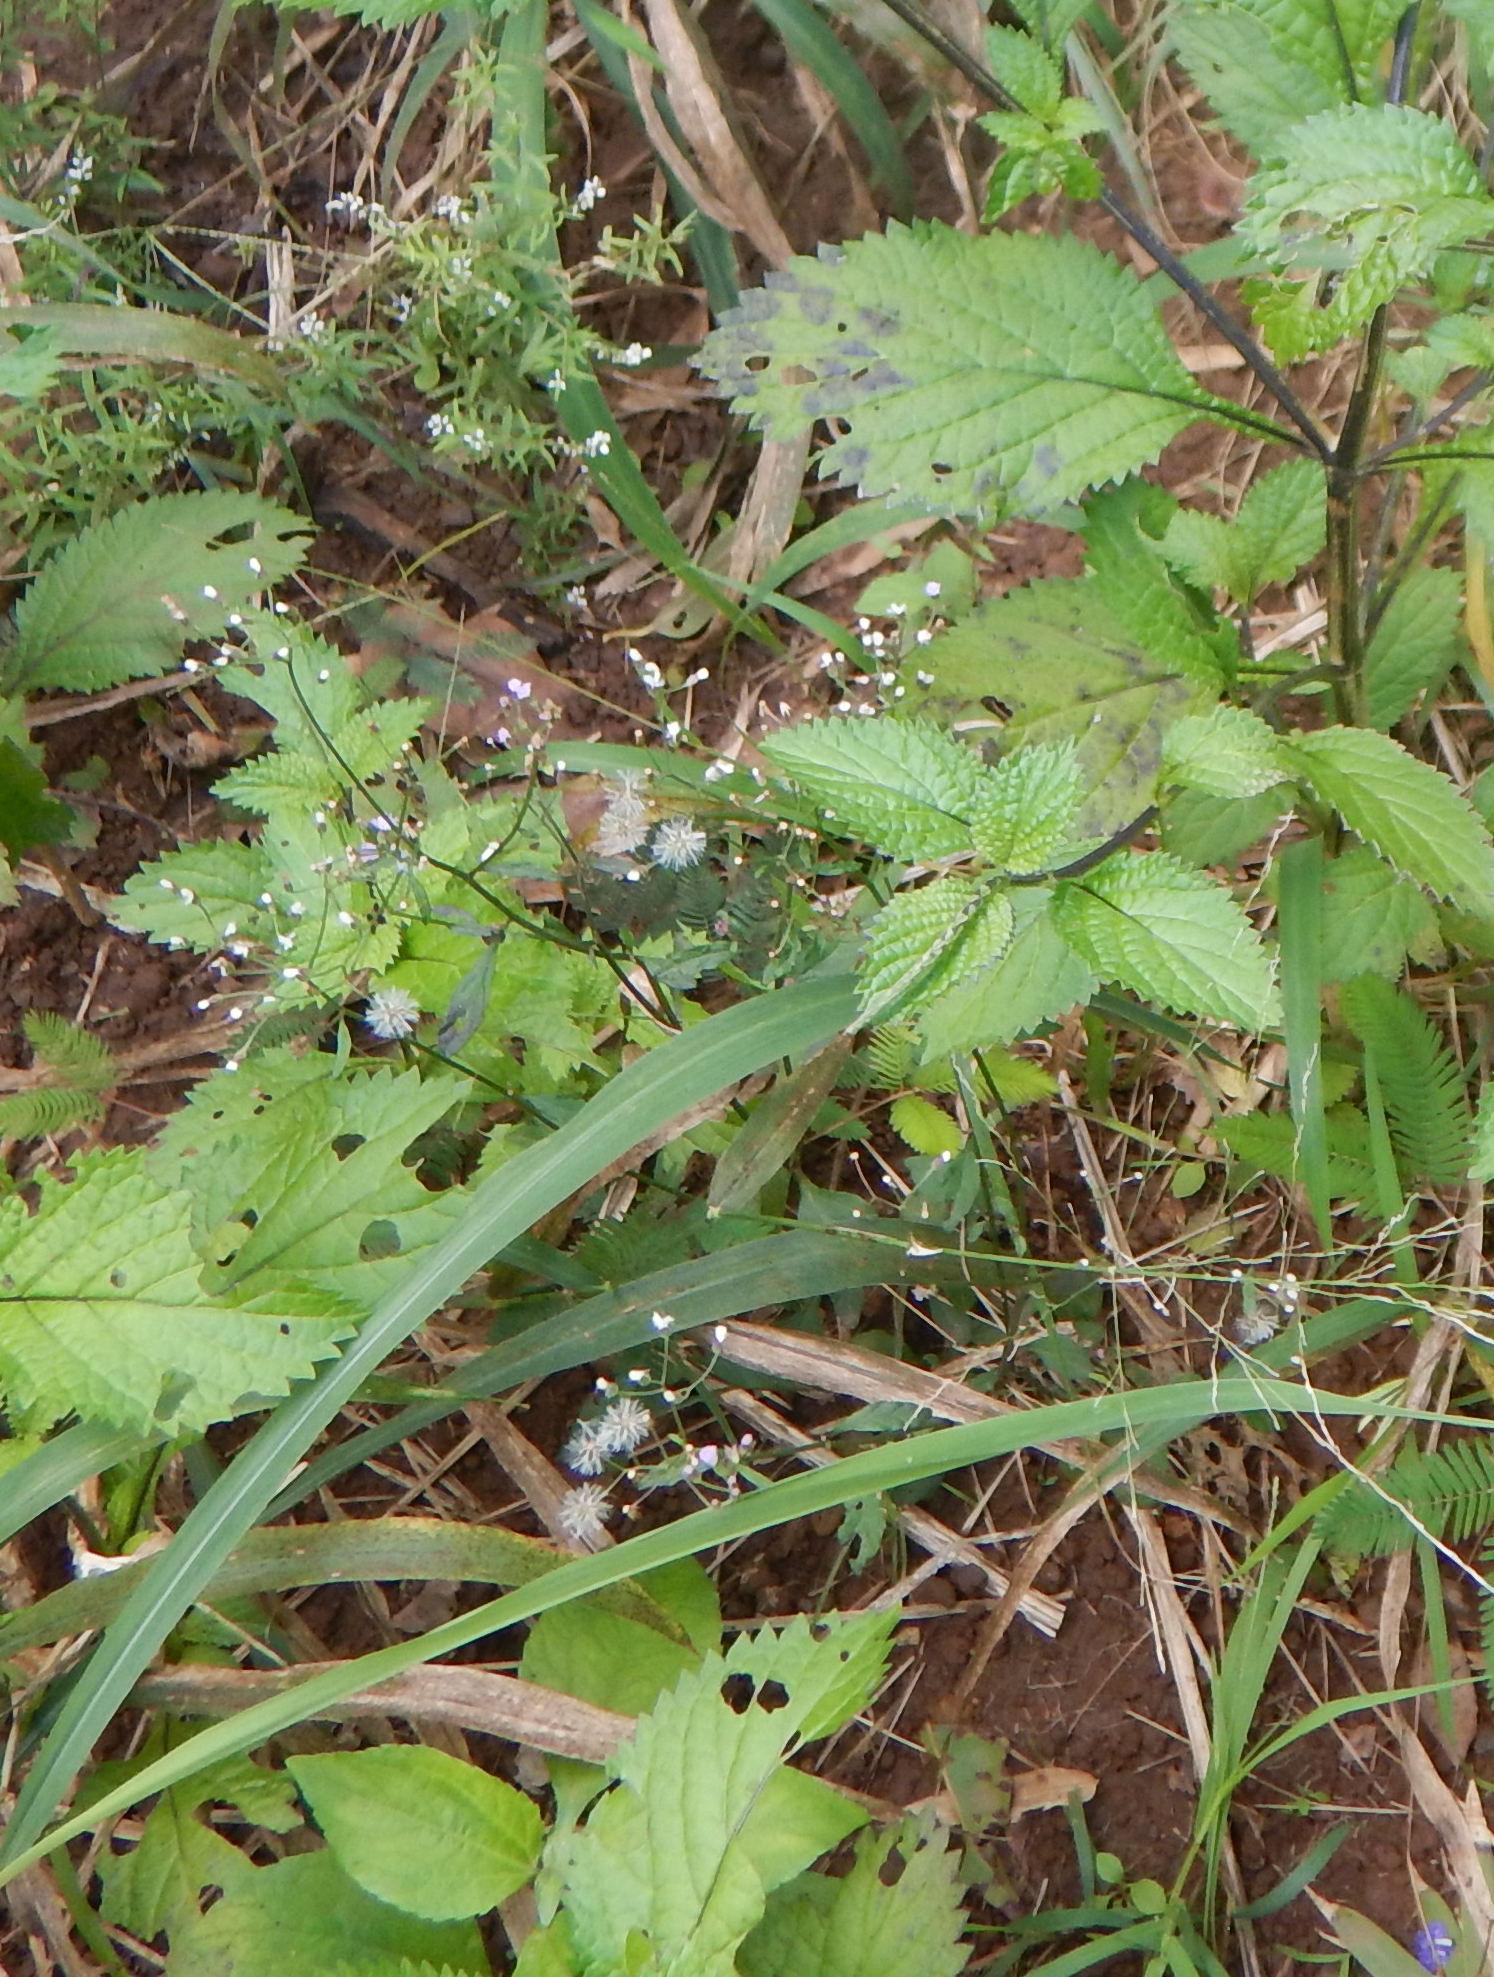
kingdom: Plantae
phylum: Tracheophyta
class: Magnoliopsida
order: Asterales
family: Asteraceae
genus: Cyanthillium
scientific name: Cyanthillium cinereum
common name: Little ironweed
